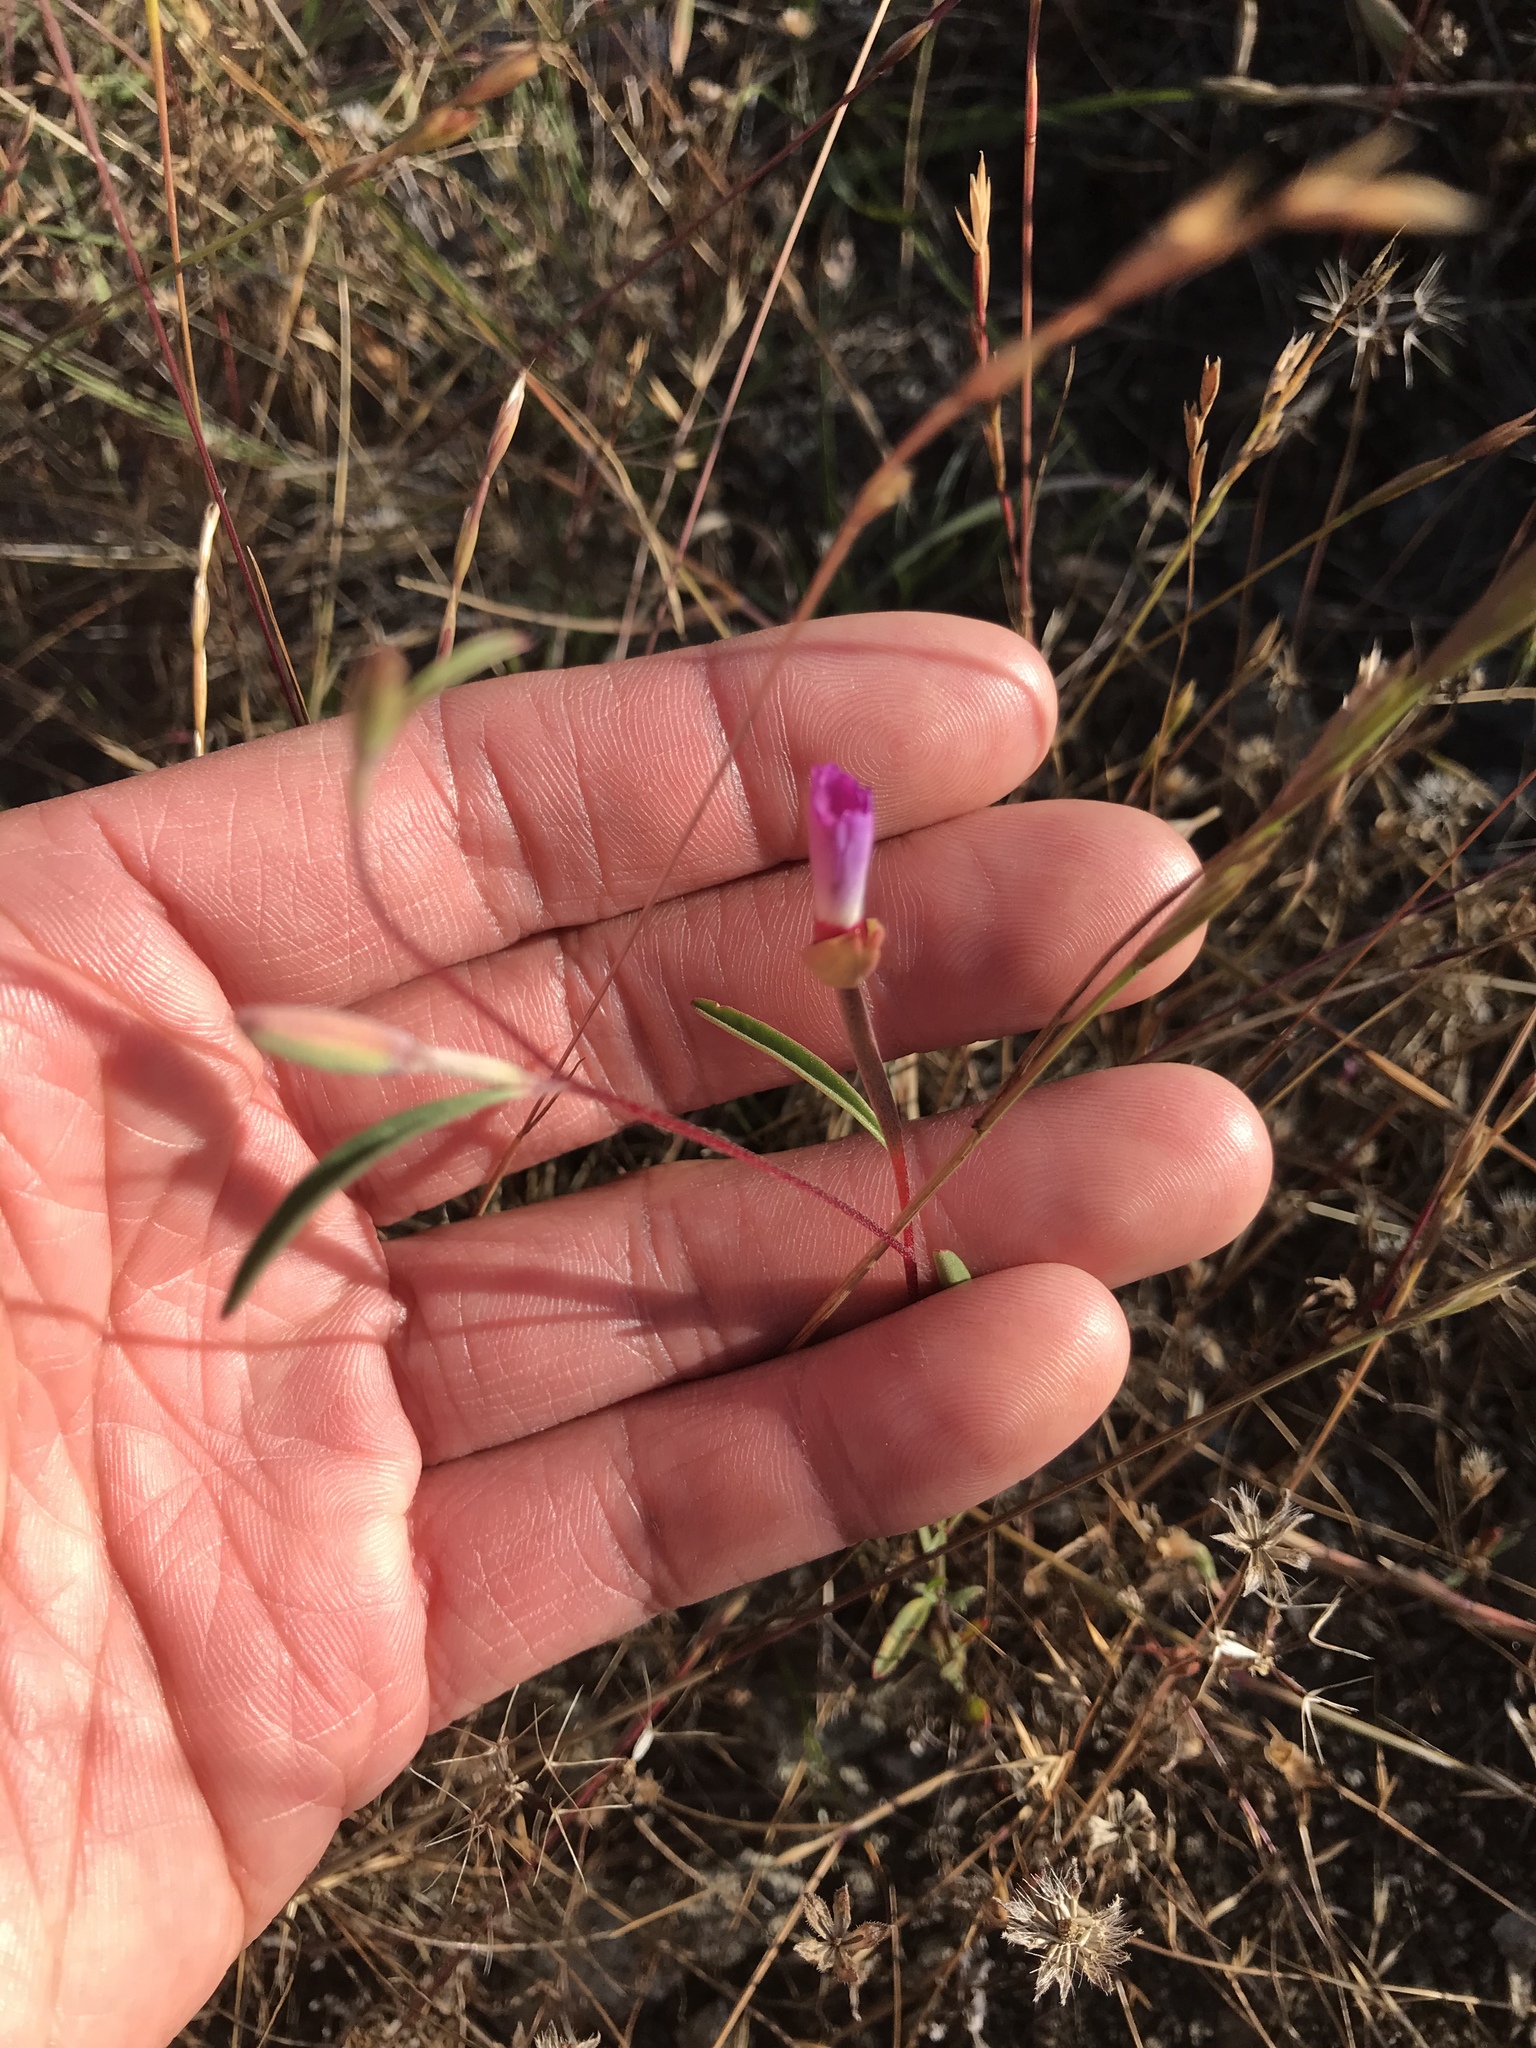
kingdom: Plantae
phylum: Tracheophyta
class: Magnoliopsida
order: Myrtales
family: Onagraceae
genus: Clarkia
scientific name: Clarkia franciscana
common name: Presidio clarkia
